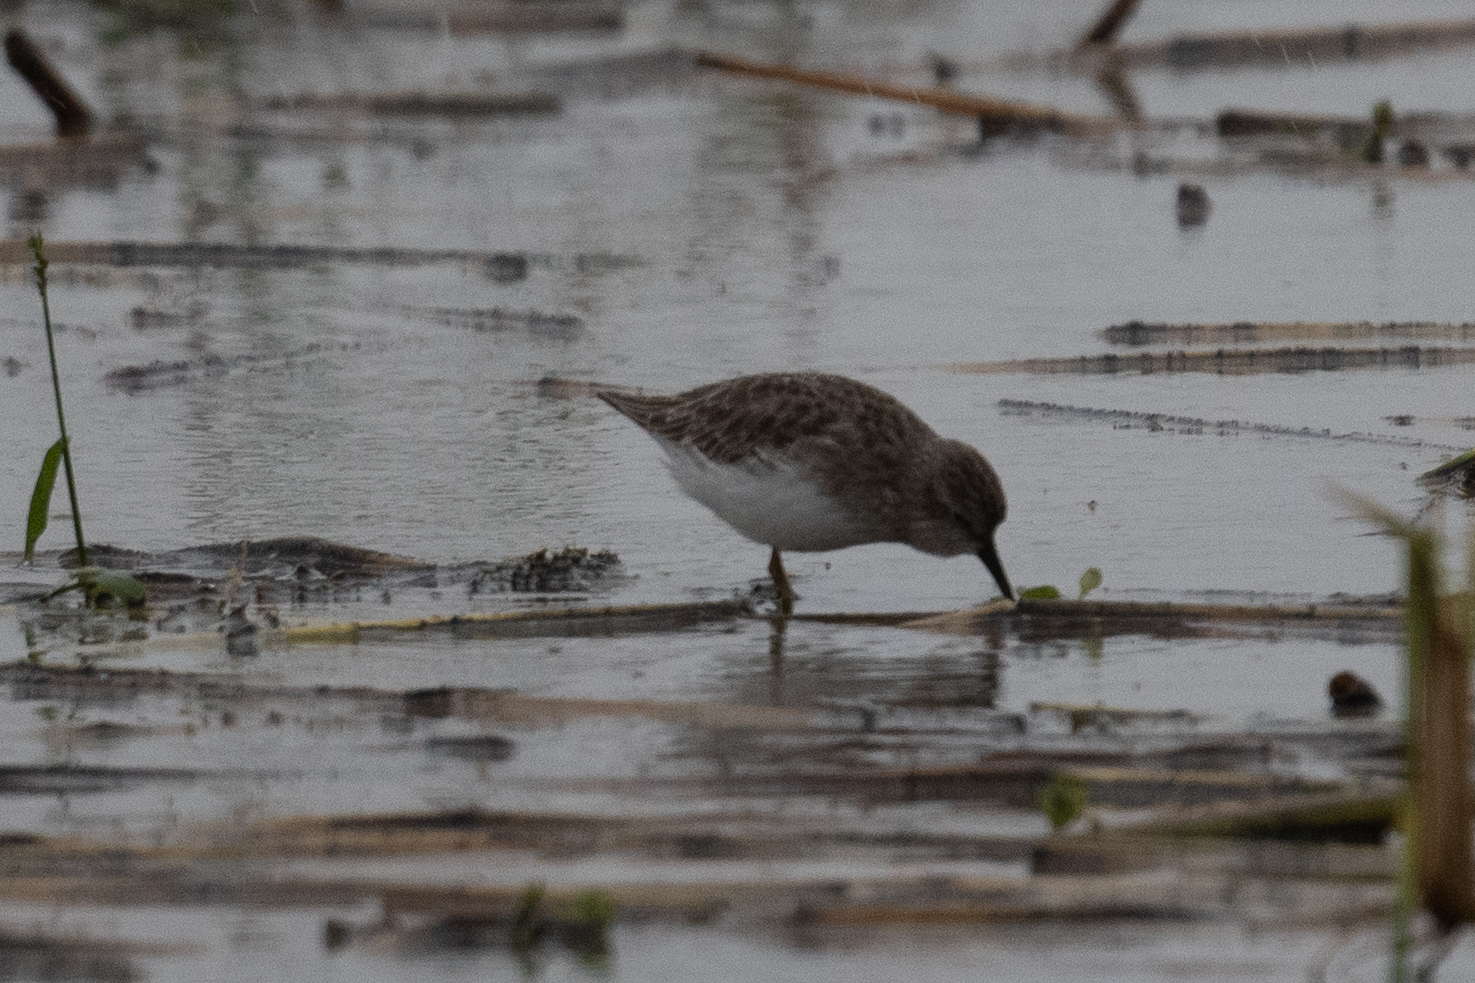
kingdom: Animalia
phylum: Chordata
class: Aves
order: Charadriiformes
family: Scolopacidae
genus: Calidris
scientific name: Calidris minutilla
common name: Least sandpiper
